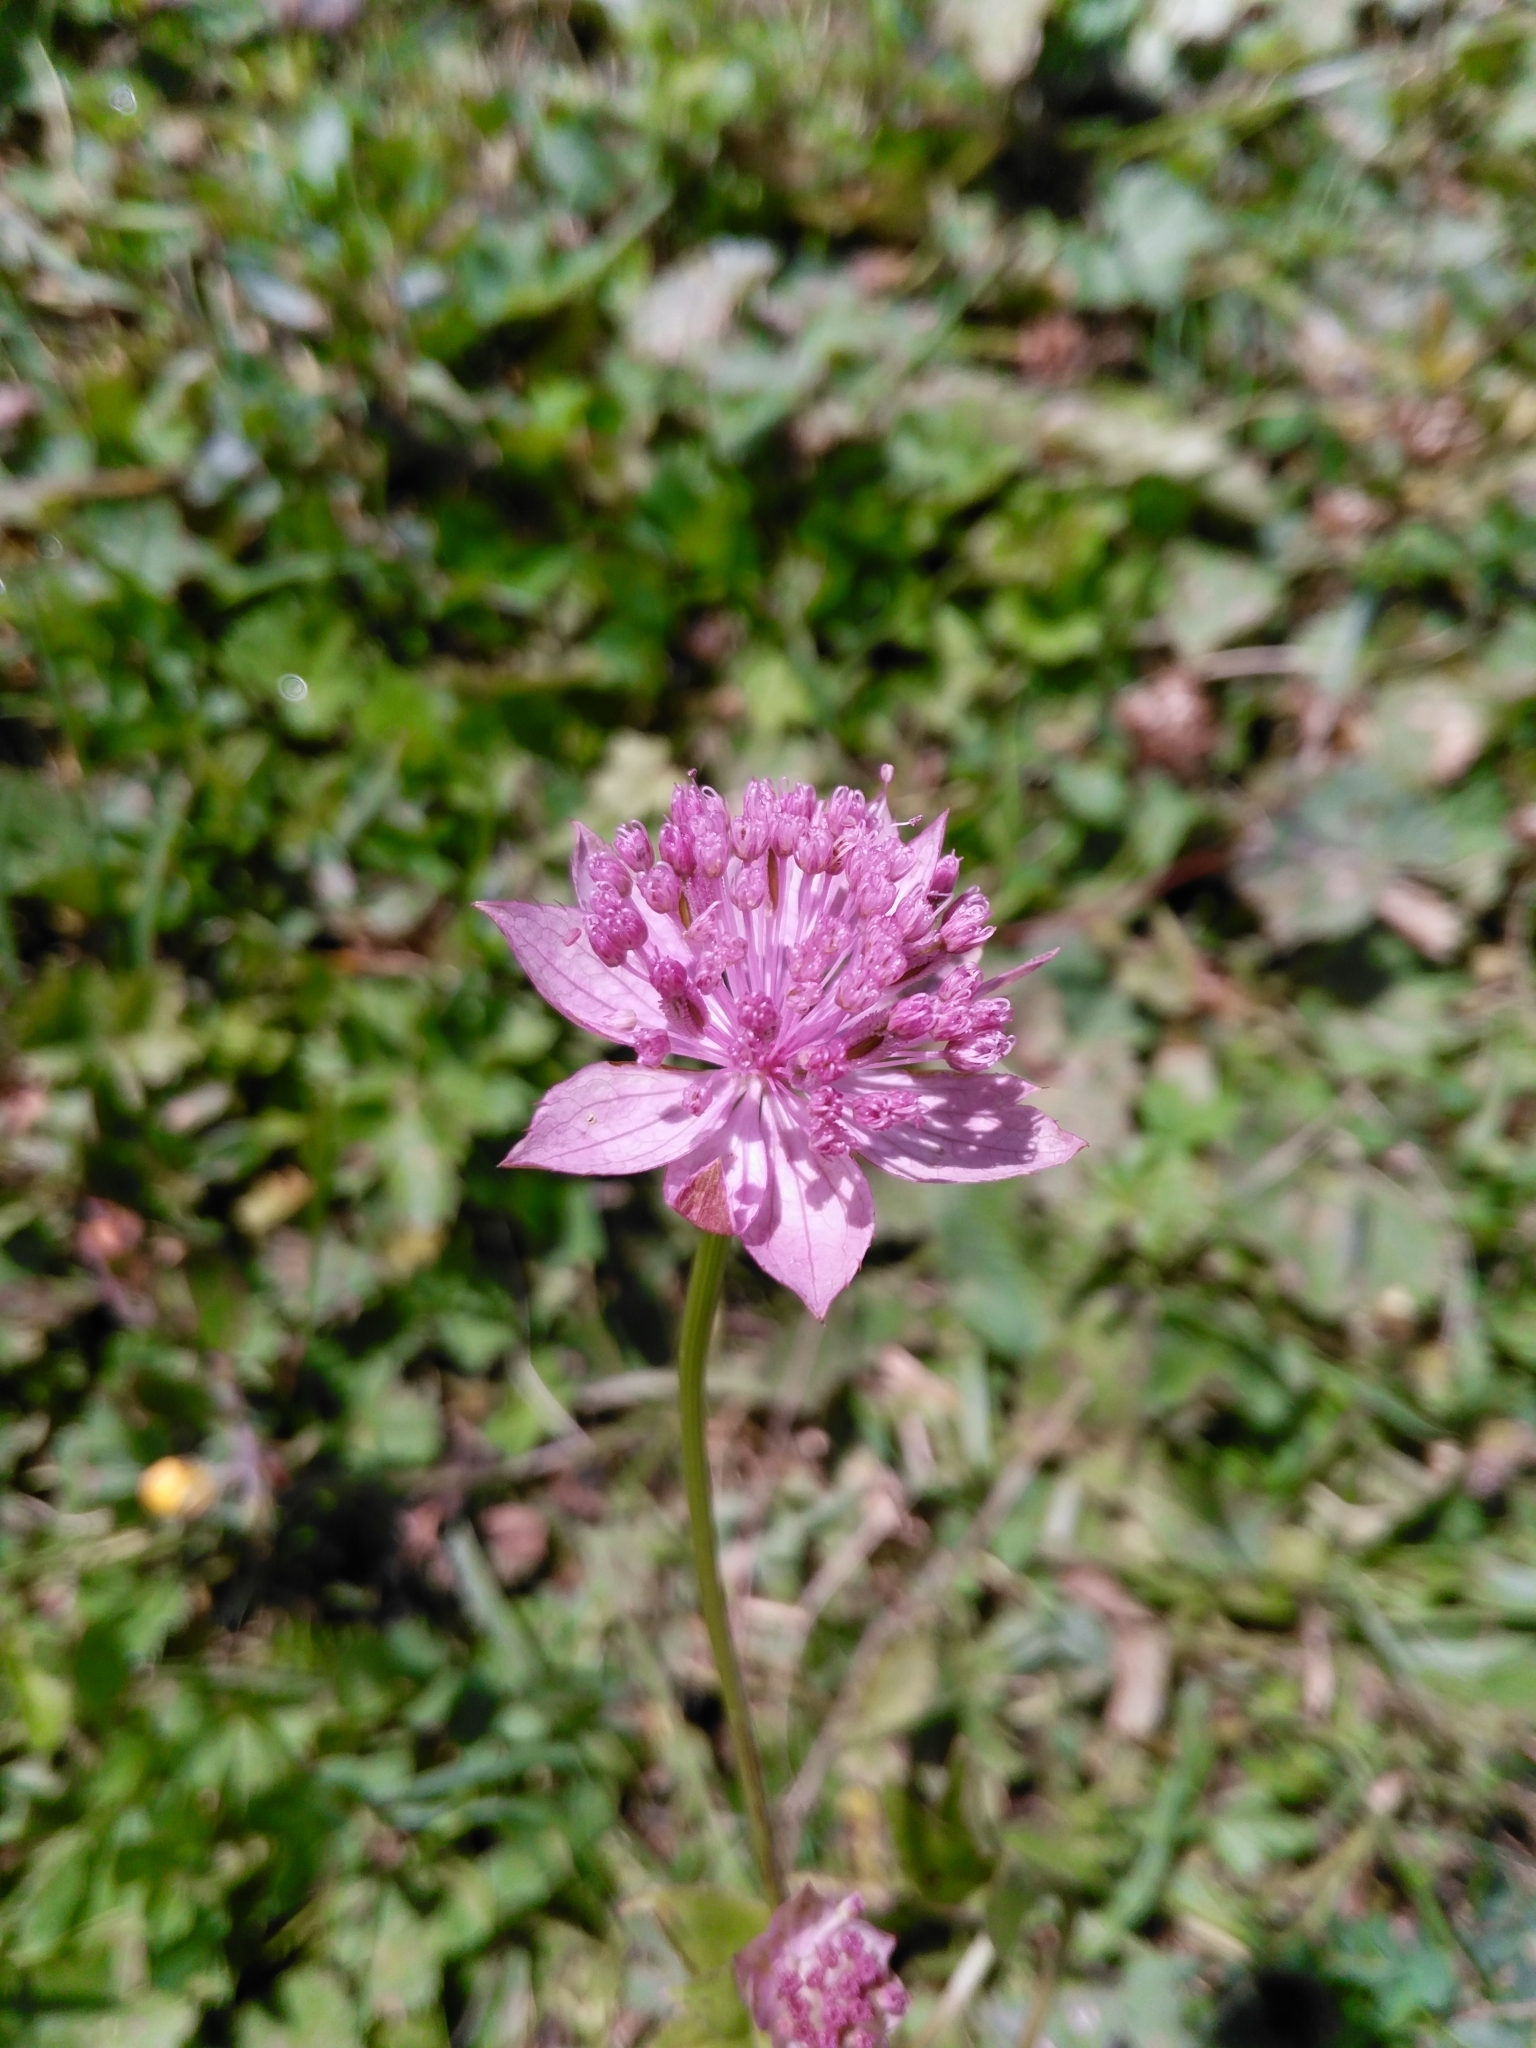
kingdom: Plantae
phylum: Tracheophyta
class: Magnoliopsida
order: Apiales
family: Apiaceae
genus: Astrantia
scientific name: Astrantia maxima
